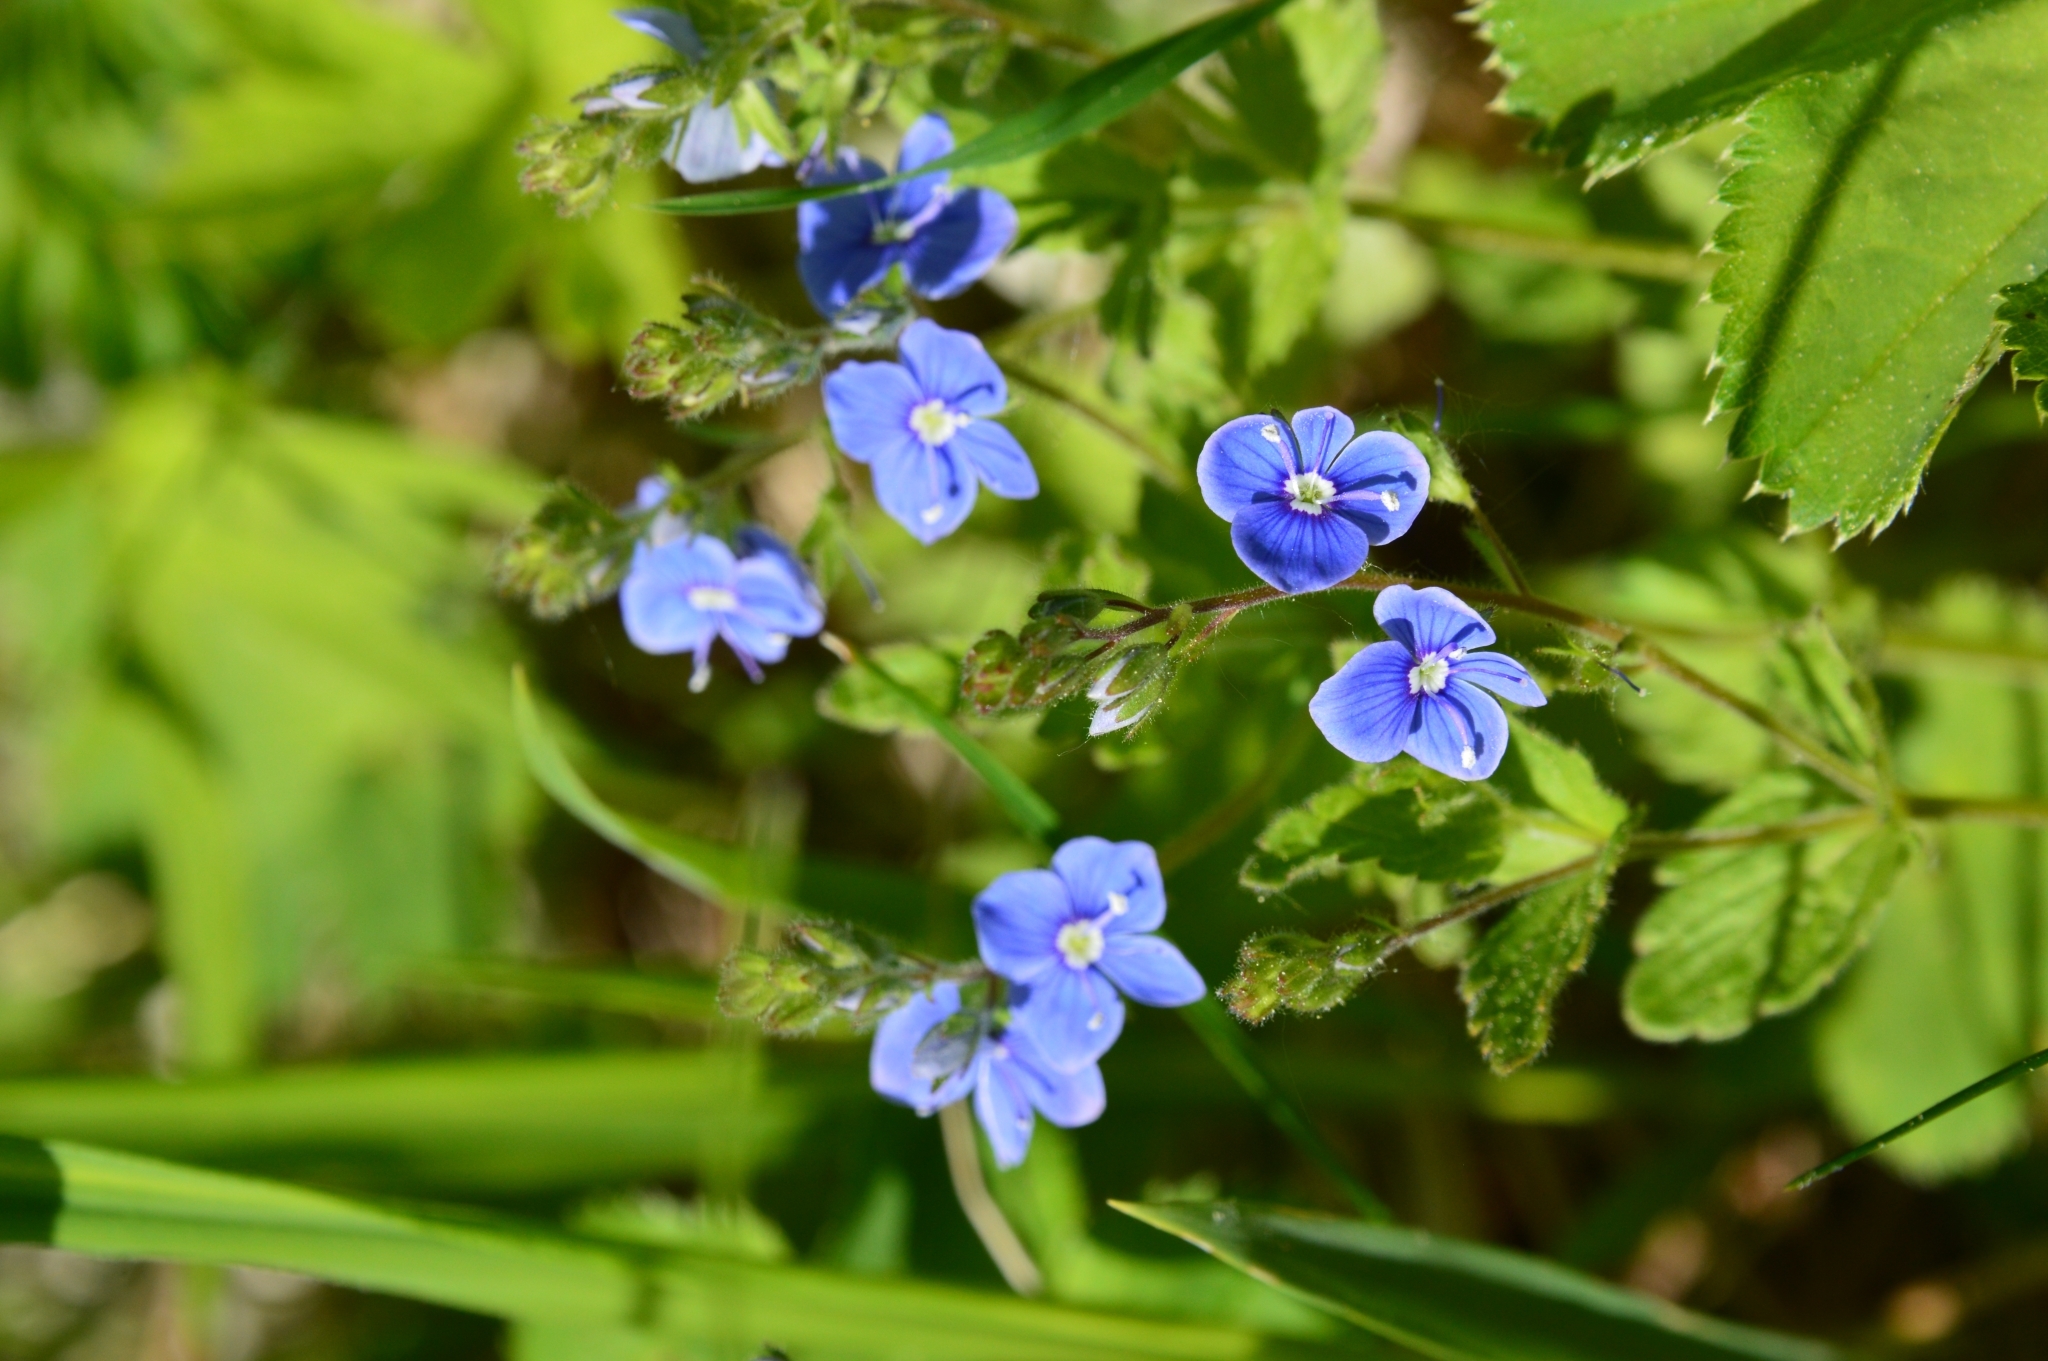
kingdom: Plantae
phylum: Tracheophyta
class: Magnoliopsida
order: Lamiales
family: Plantaginaceae
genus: Veronica
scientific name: Veronica chamaedrys
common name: Germander speedwell
